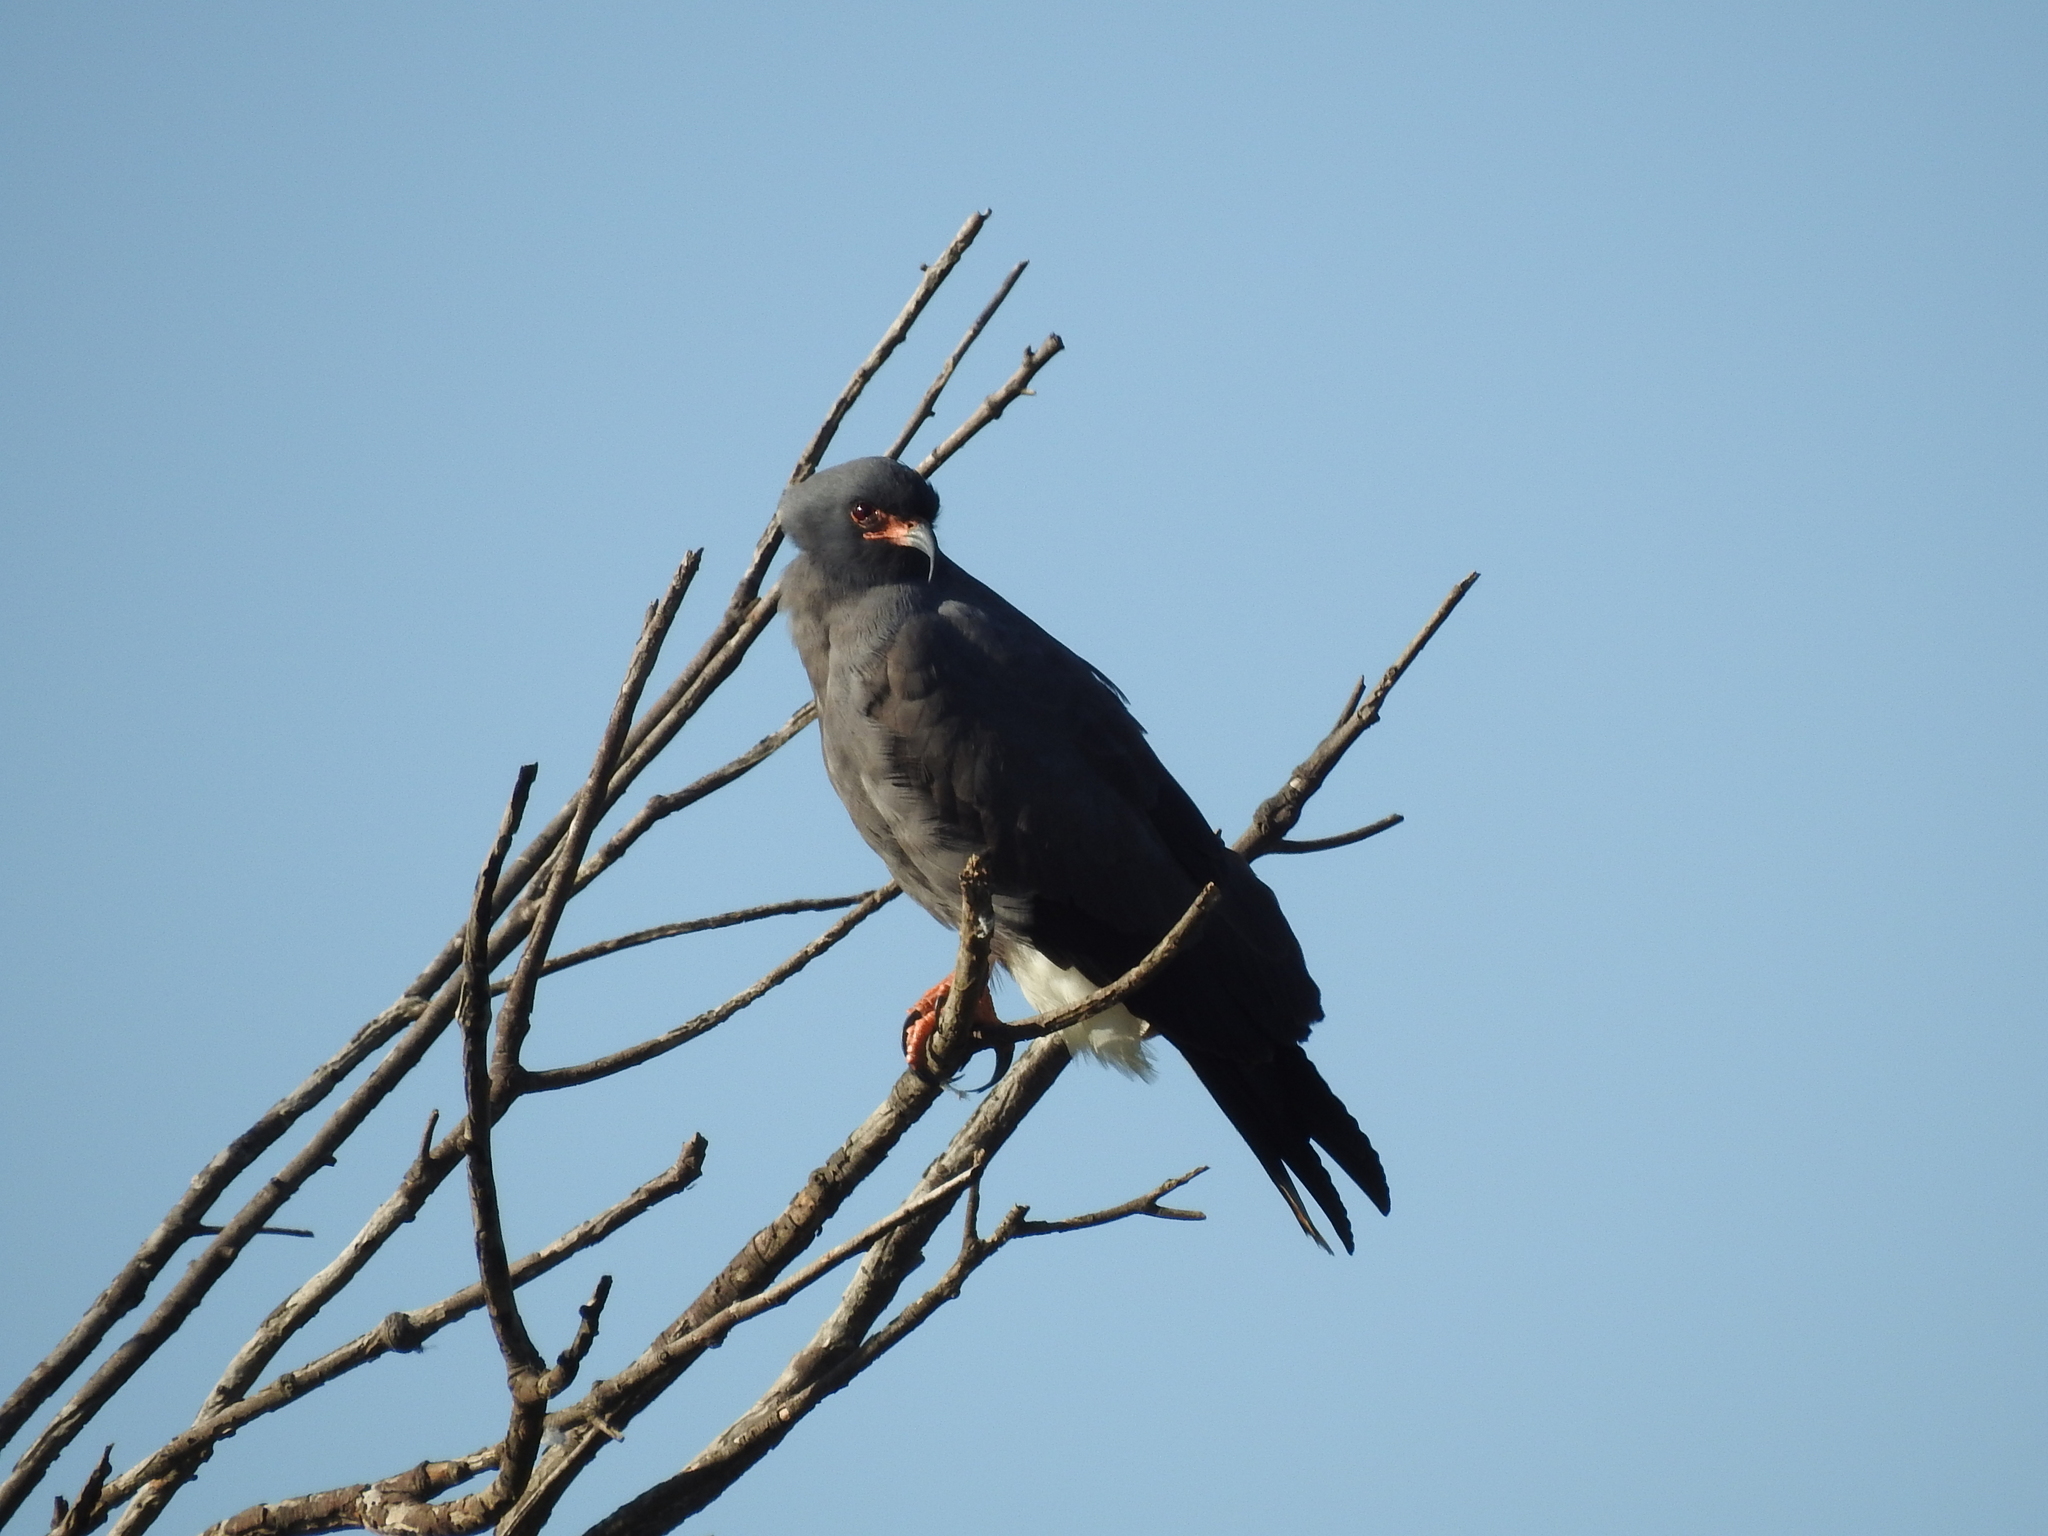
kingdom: Animalia
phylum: Chordata
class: Aves
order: Accipitriformes
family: Accipitridae
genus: Rostrhamus
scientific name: Rostrhamus sociabilis
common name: Snail kite
